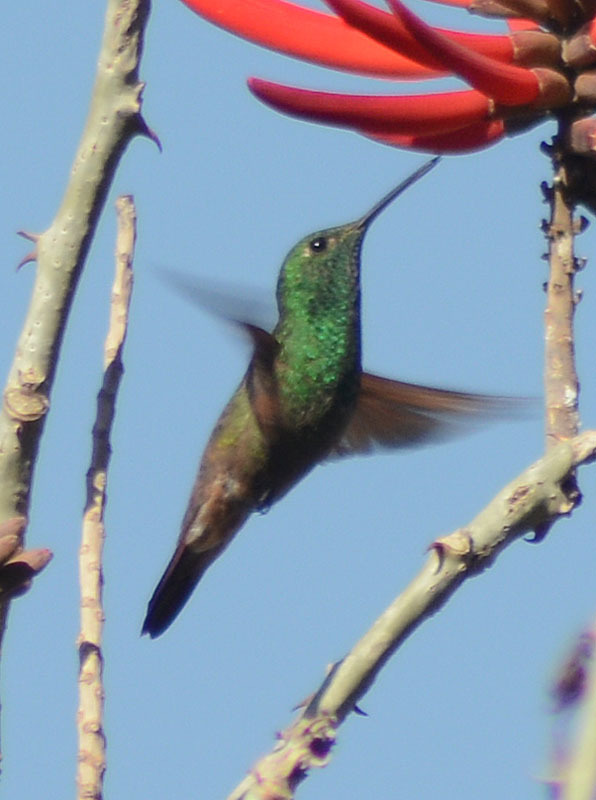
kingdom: Animalia
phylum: Chordata
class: Aves
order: Apodiformes
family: Trochilidae
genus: Saucerottia
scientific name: Saucerottia beryllina
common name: Berylline hummingbird
